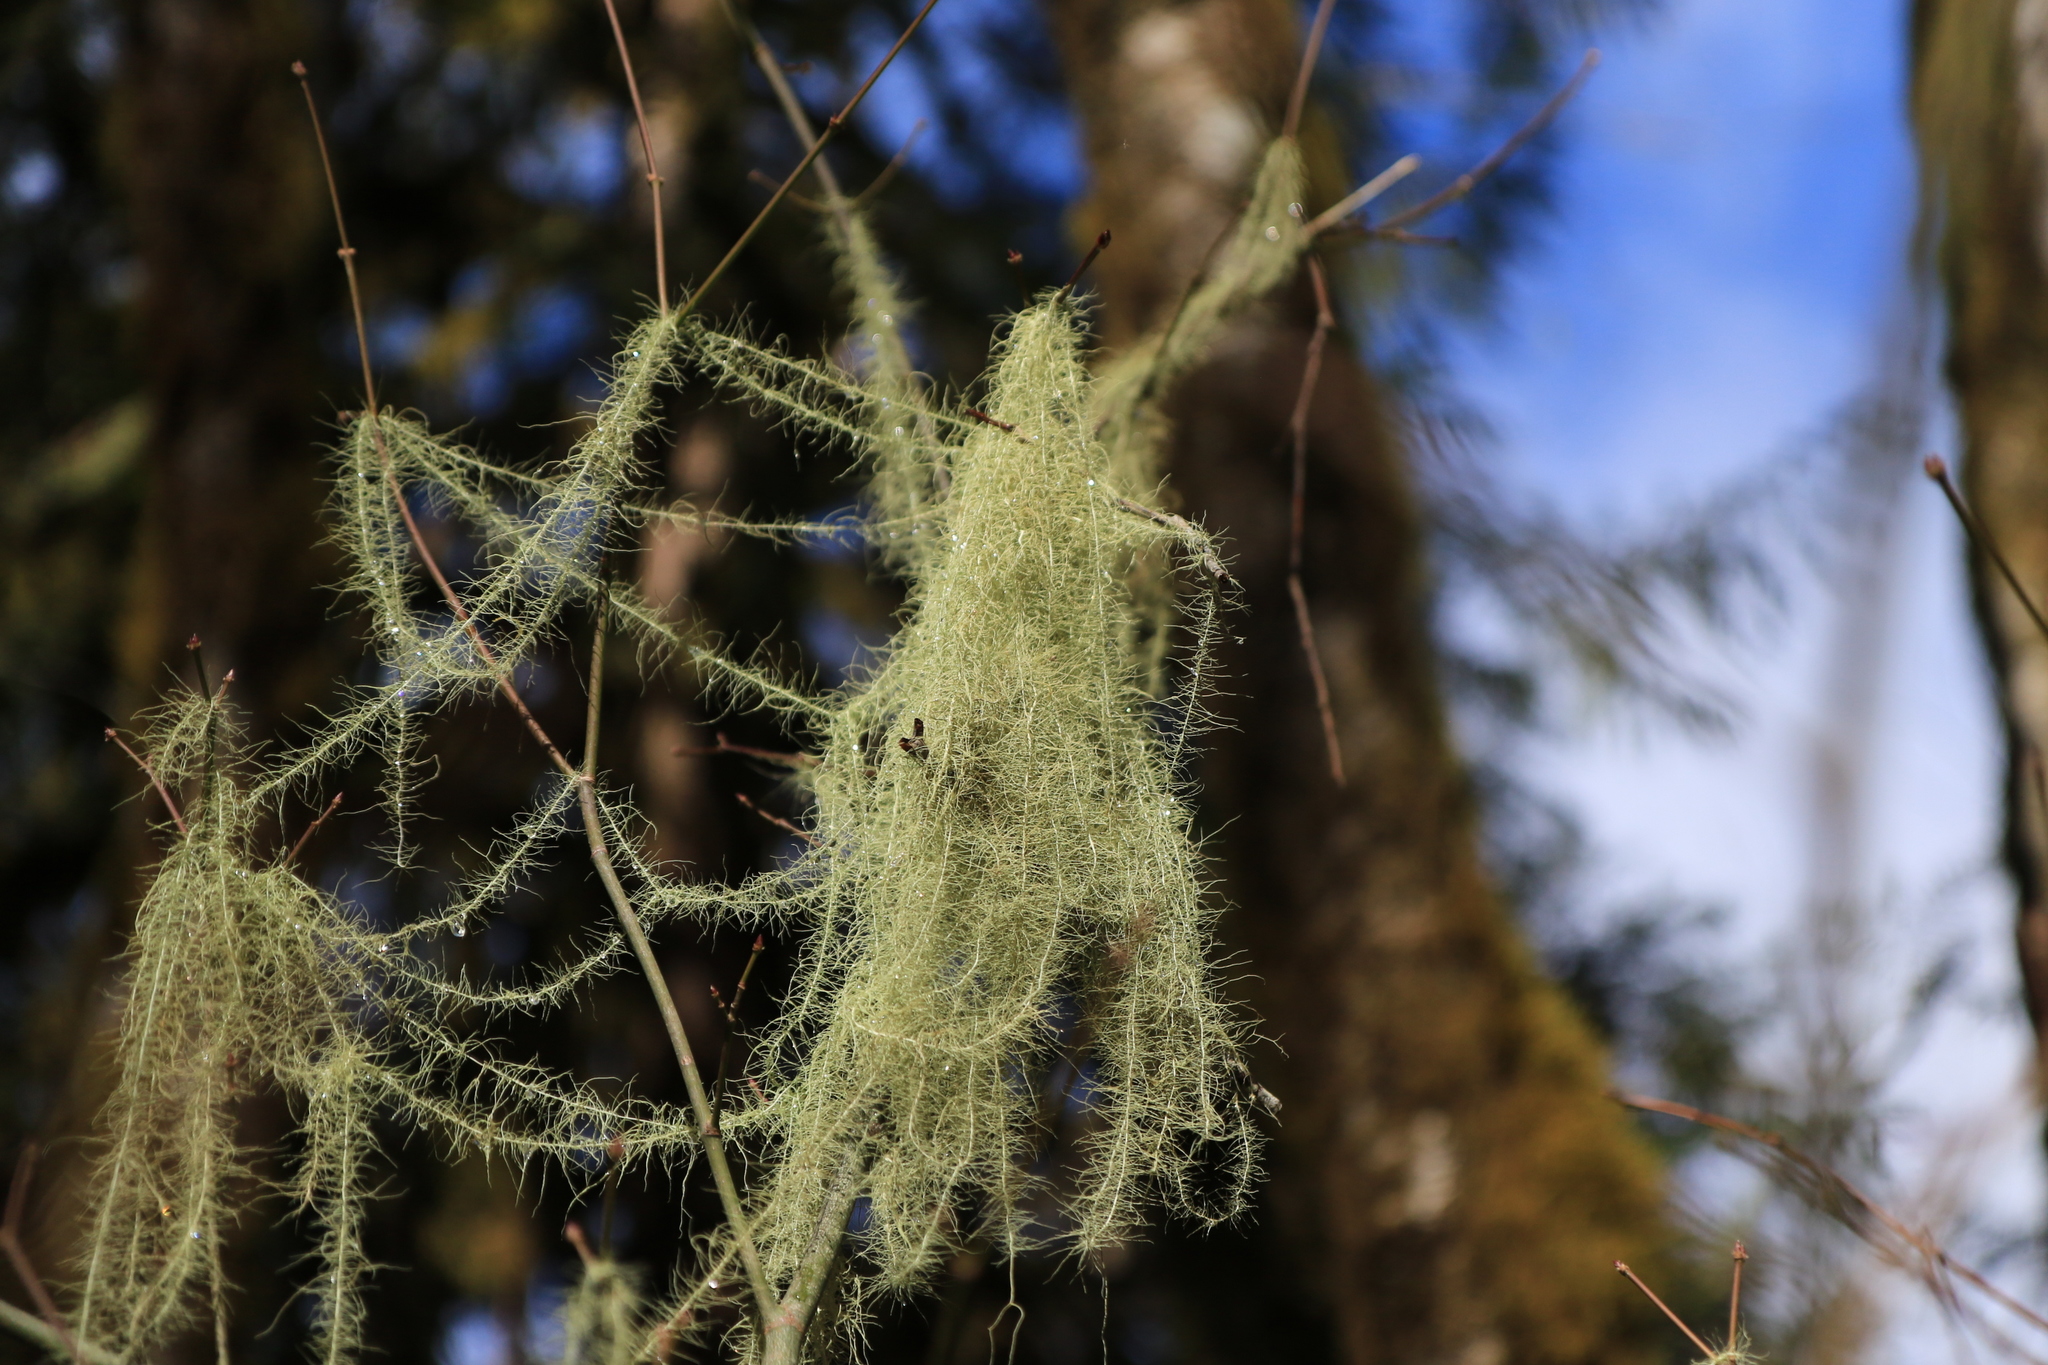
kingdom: Fungi
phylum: Ascomycota
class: Lecanoromycetes
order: Lecanorales
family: Parmeliaceae
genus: Dolichousnea
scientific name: Dolichousnea longissima
